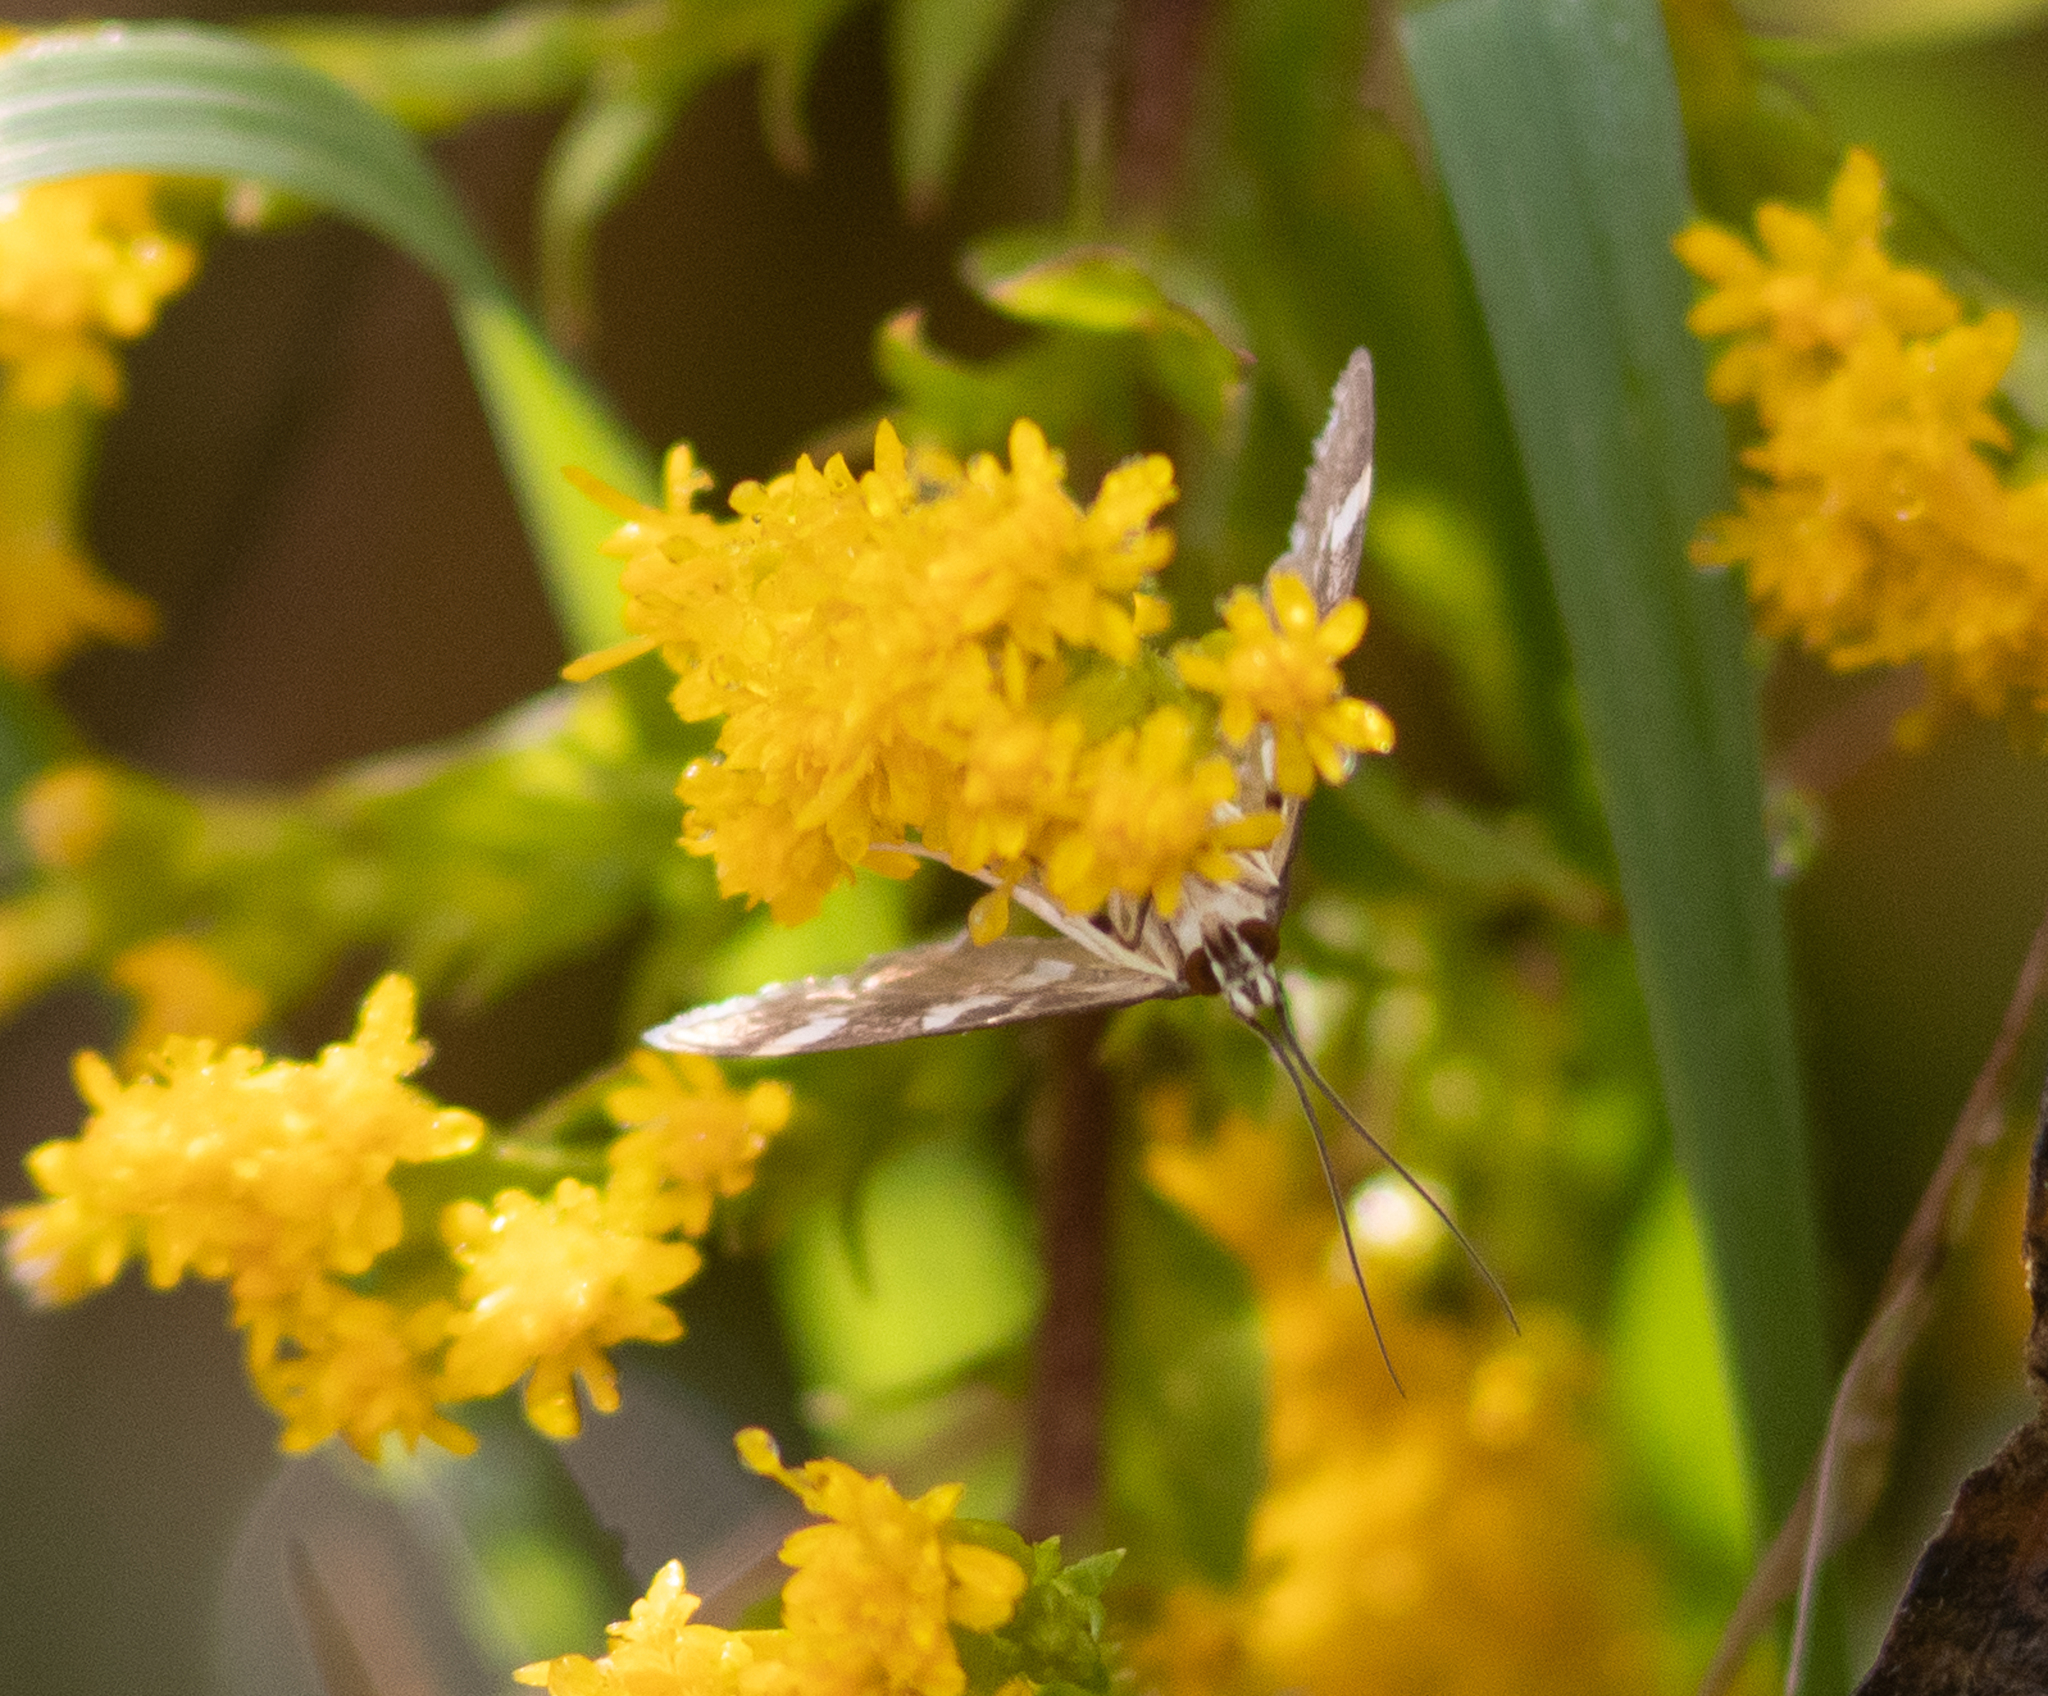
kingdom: Animalia
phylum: Arthropoda
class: Insecta
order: Lepidoptera
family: Crambidae
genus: Spoladea
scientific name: Spoladea recurvalis
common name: Beet webworm moth
